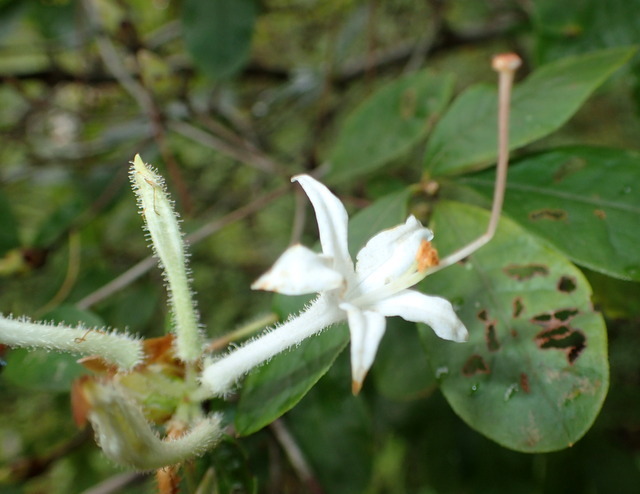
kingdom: Plantae
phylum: Tracheophyta
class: Magnoliopsida
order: Ericales
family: Ericaceae
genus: Rhododendron
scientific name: Rhododendron serrulatum
